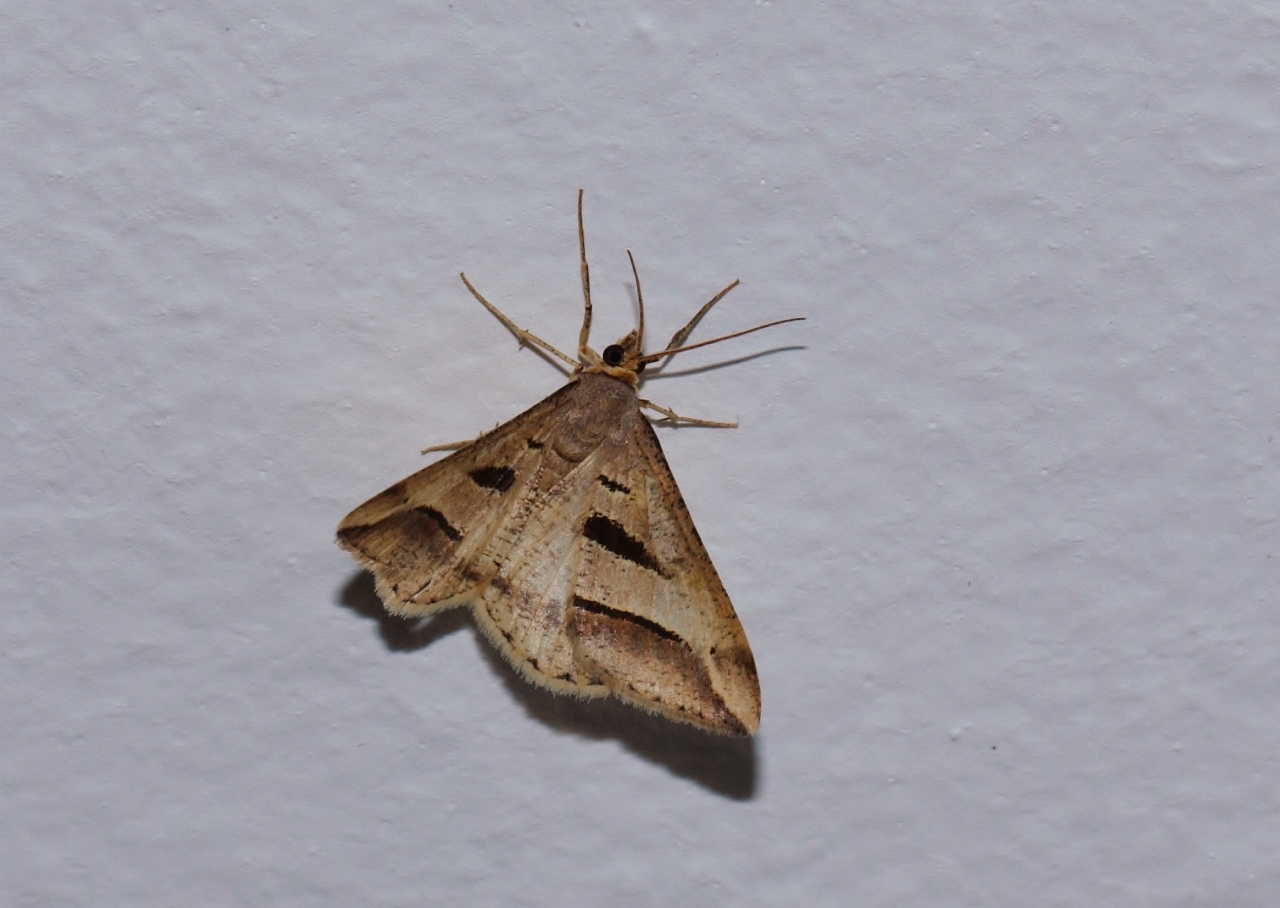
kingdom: Animalia
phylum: Arthropoda
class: Insecta
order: Lepidoptera
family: Geometridae
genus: Chiasmia
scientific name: Chiasmia observata
